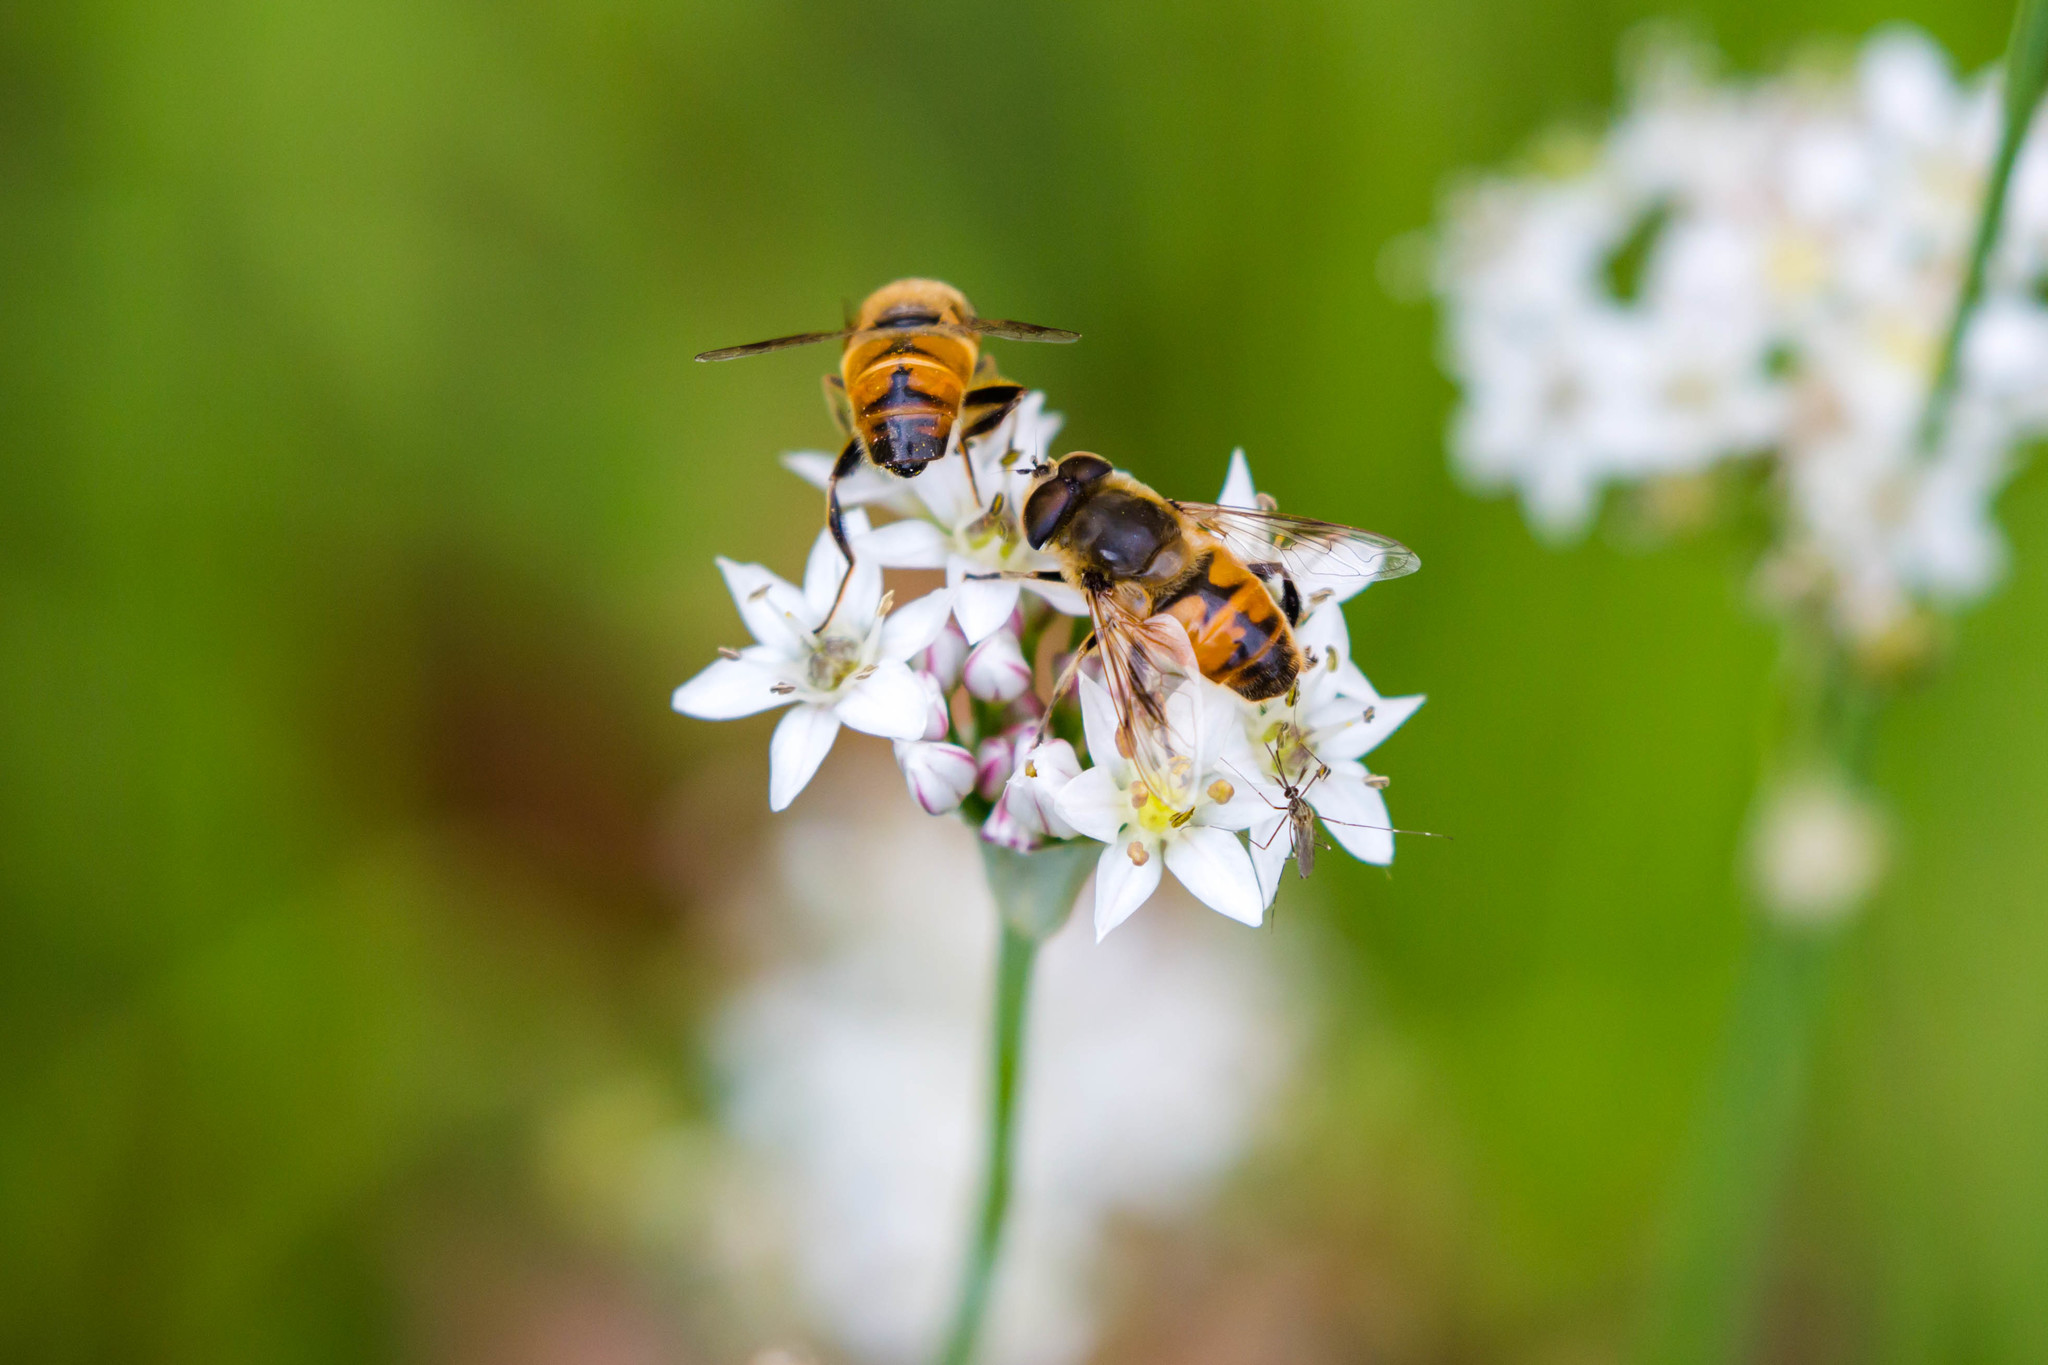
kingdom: Animalia
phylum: Arthropoda
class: Insecta
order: Diptera
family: Syrphidae
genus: Eristalis
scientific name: Eristalis tenax
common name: Drone fly
